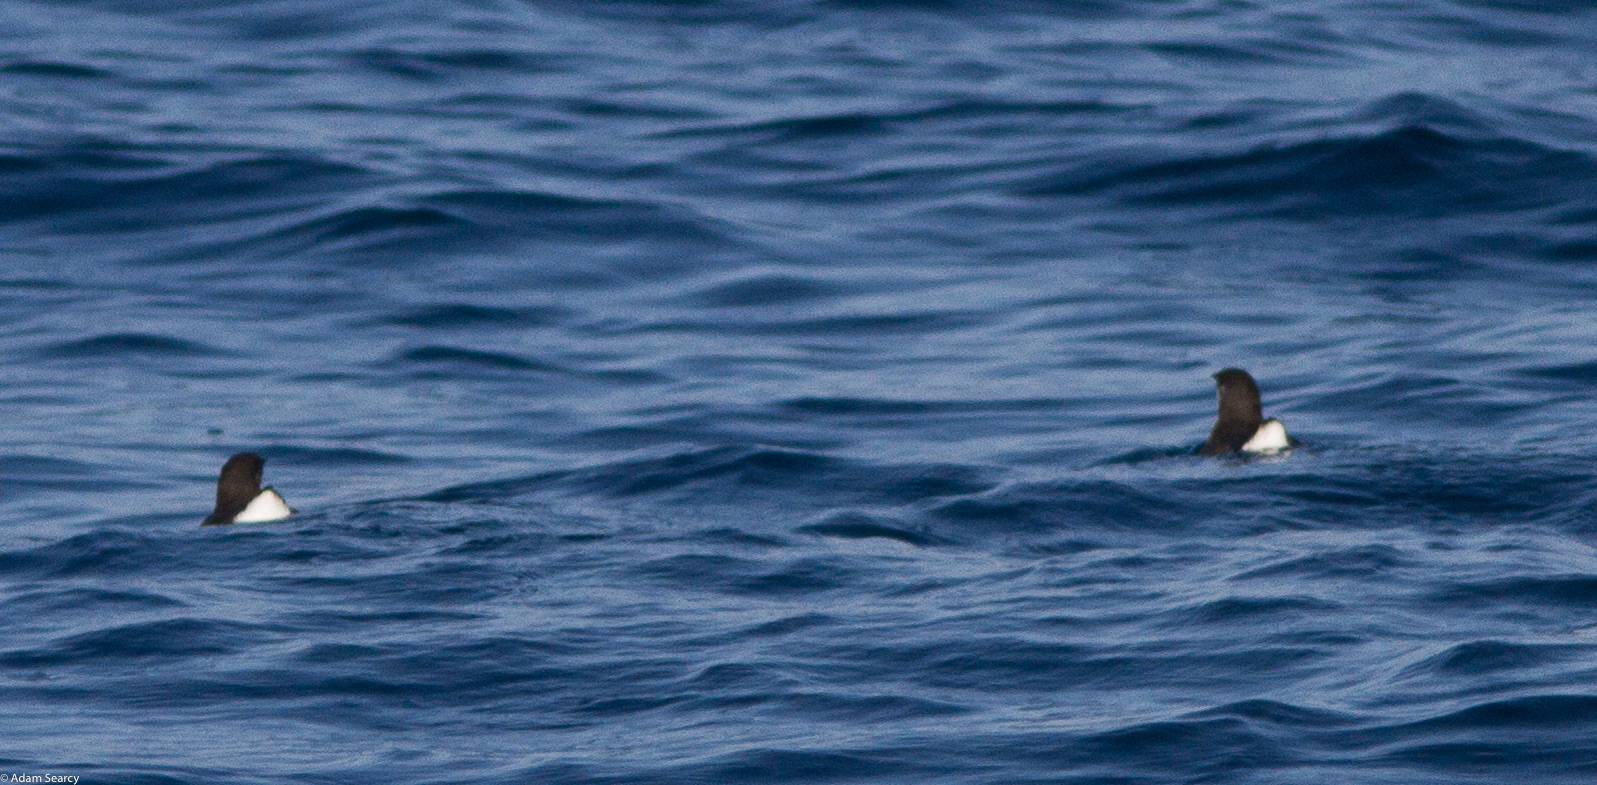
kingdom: Animalia
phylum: Chordata
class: Aves
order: Charadriiformes
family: Alcidae
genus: Synthliboramphus
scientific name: Synthliboramphus craveri
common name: Craveri's murrelet
